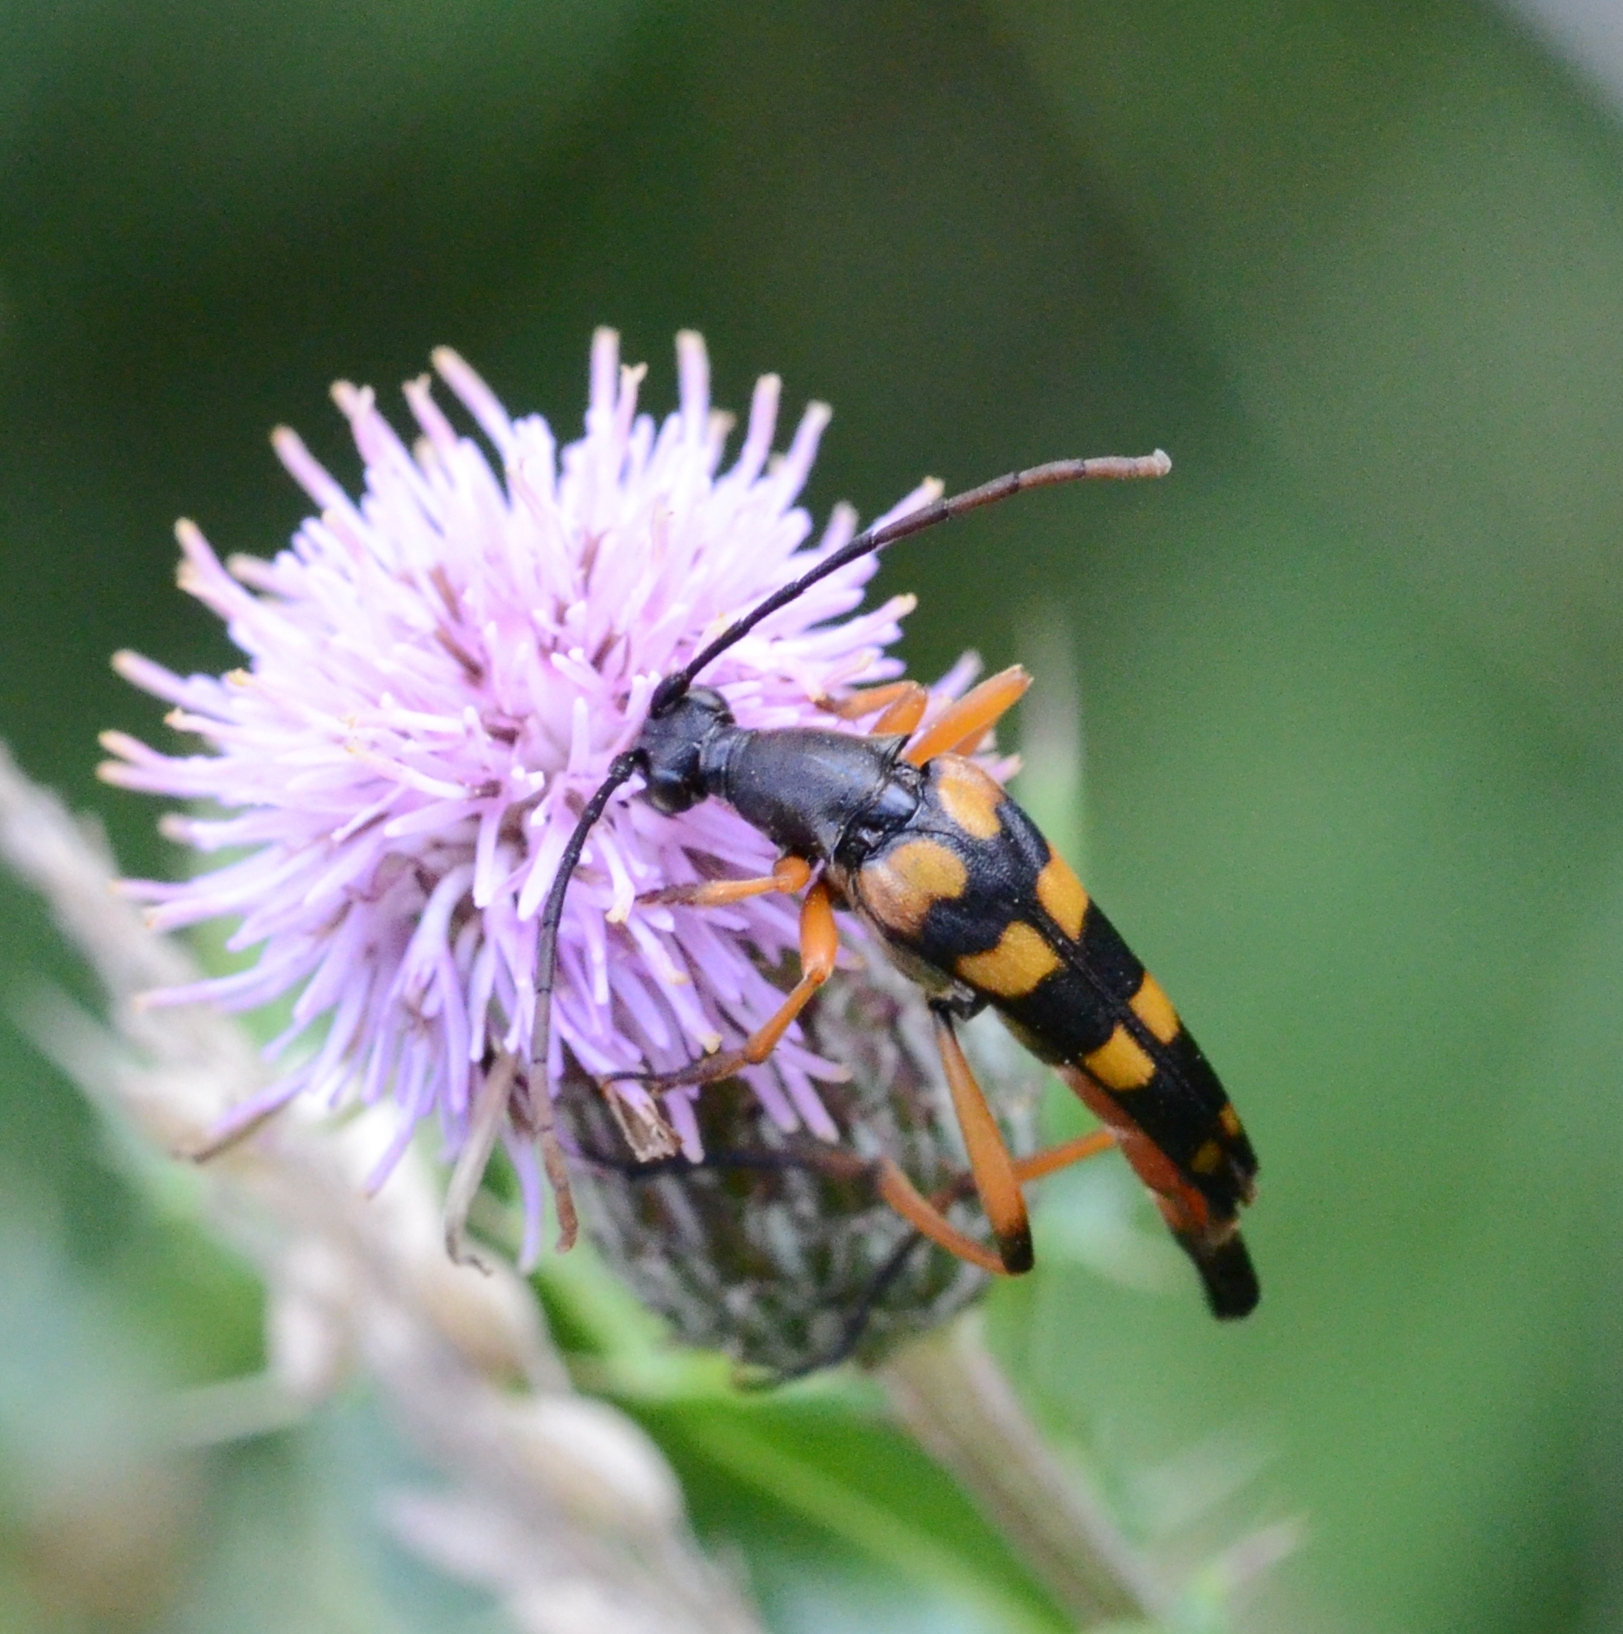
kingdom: Animalia
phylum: Arthropoda
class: Insecta
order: Coleoptera
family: Cerambycidae
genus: Strangalia
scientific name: Strangalia attenuata
